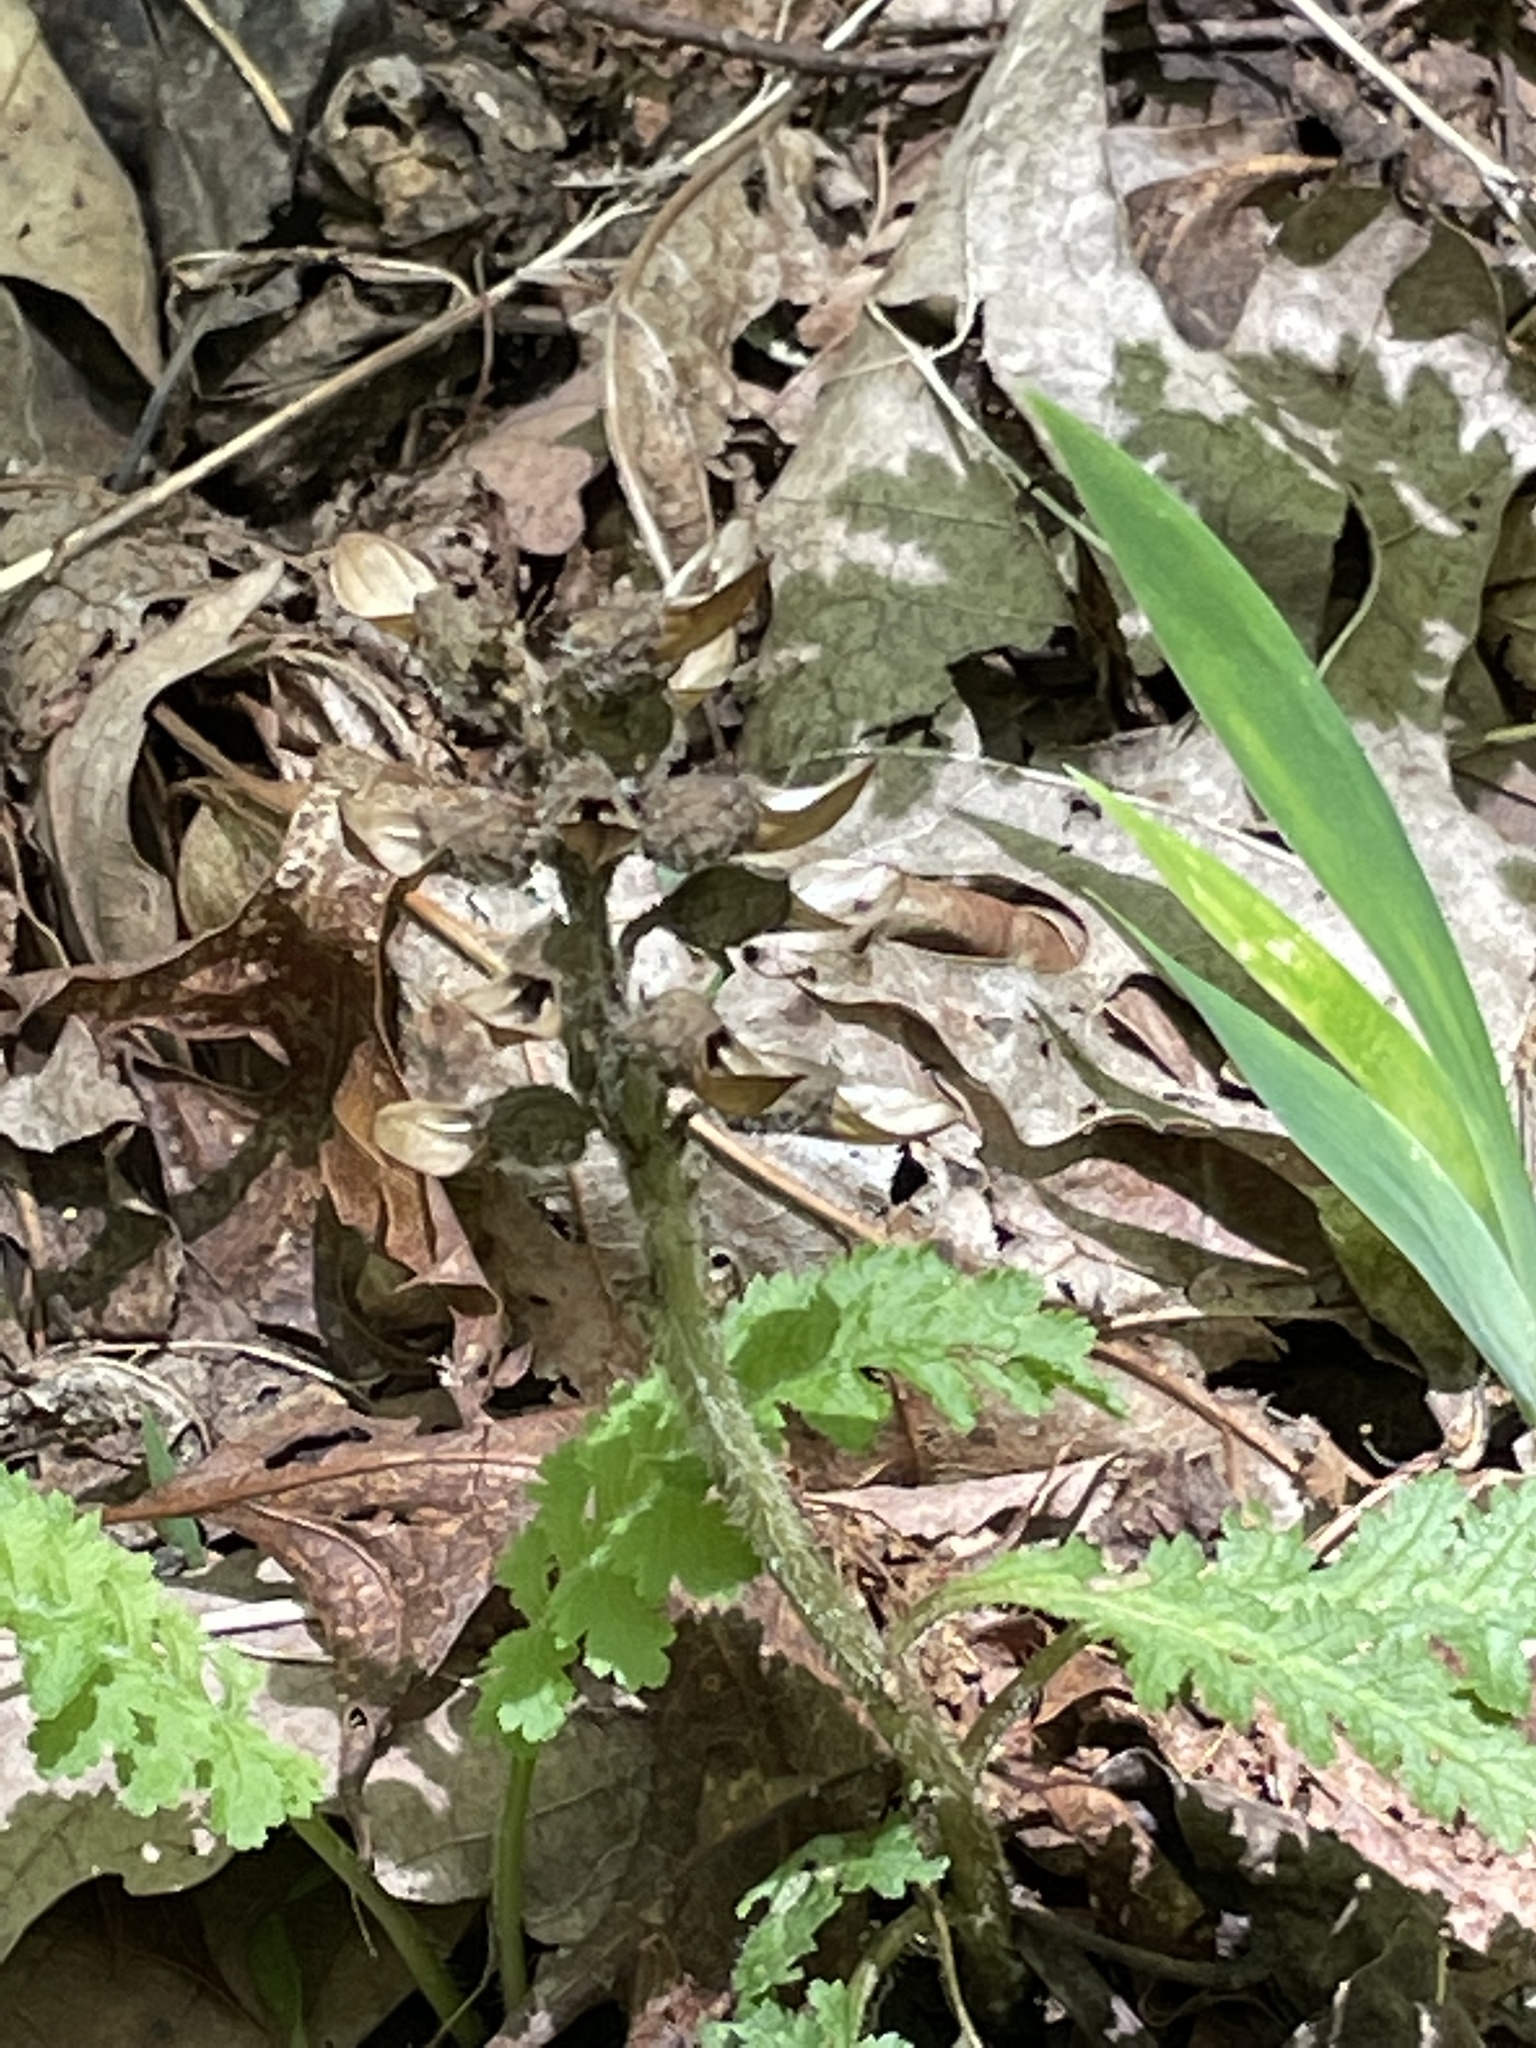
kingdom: Plantae
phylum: Tracheophyta
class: Magnoliopsida
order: Lamiales
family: Orobanchaceae
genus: Pedicularis
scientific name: Pedicularis canadensis
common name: Early lousewort
